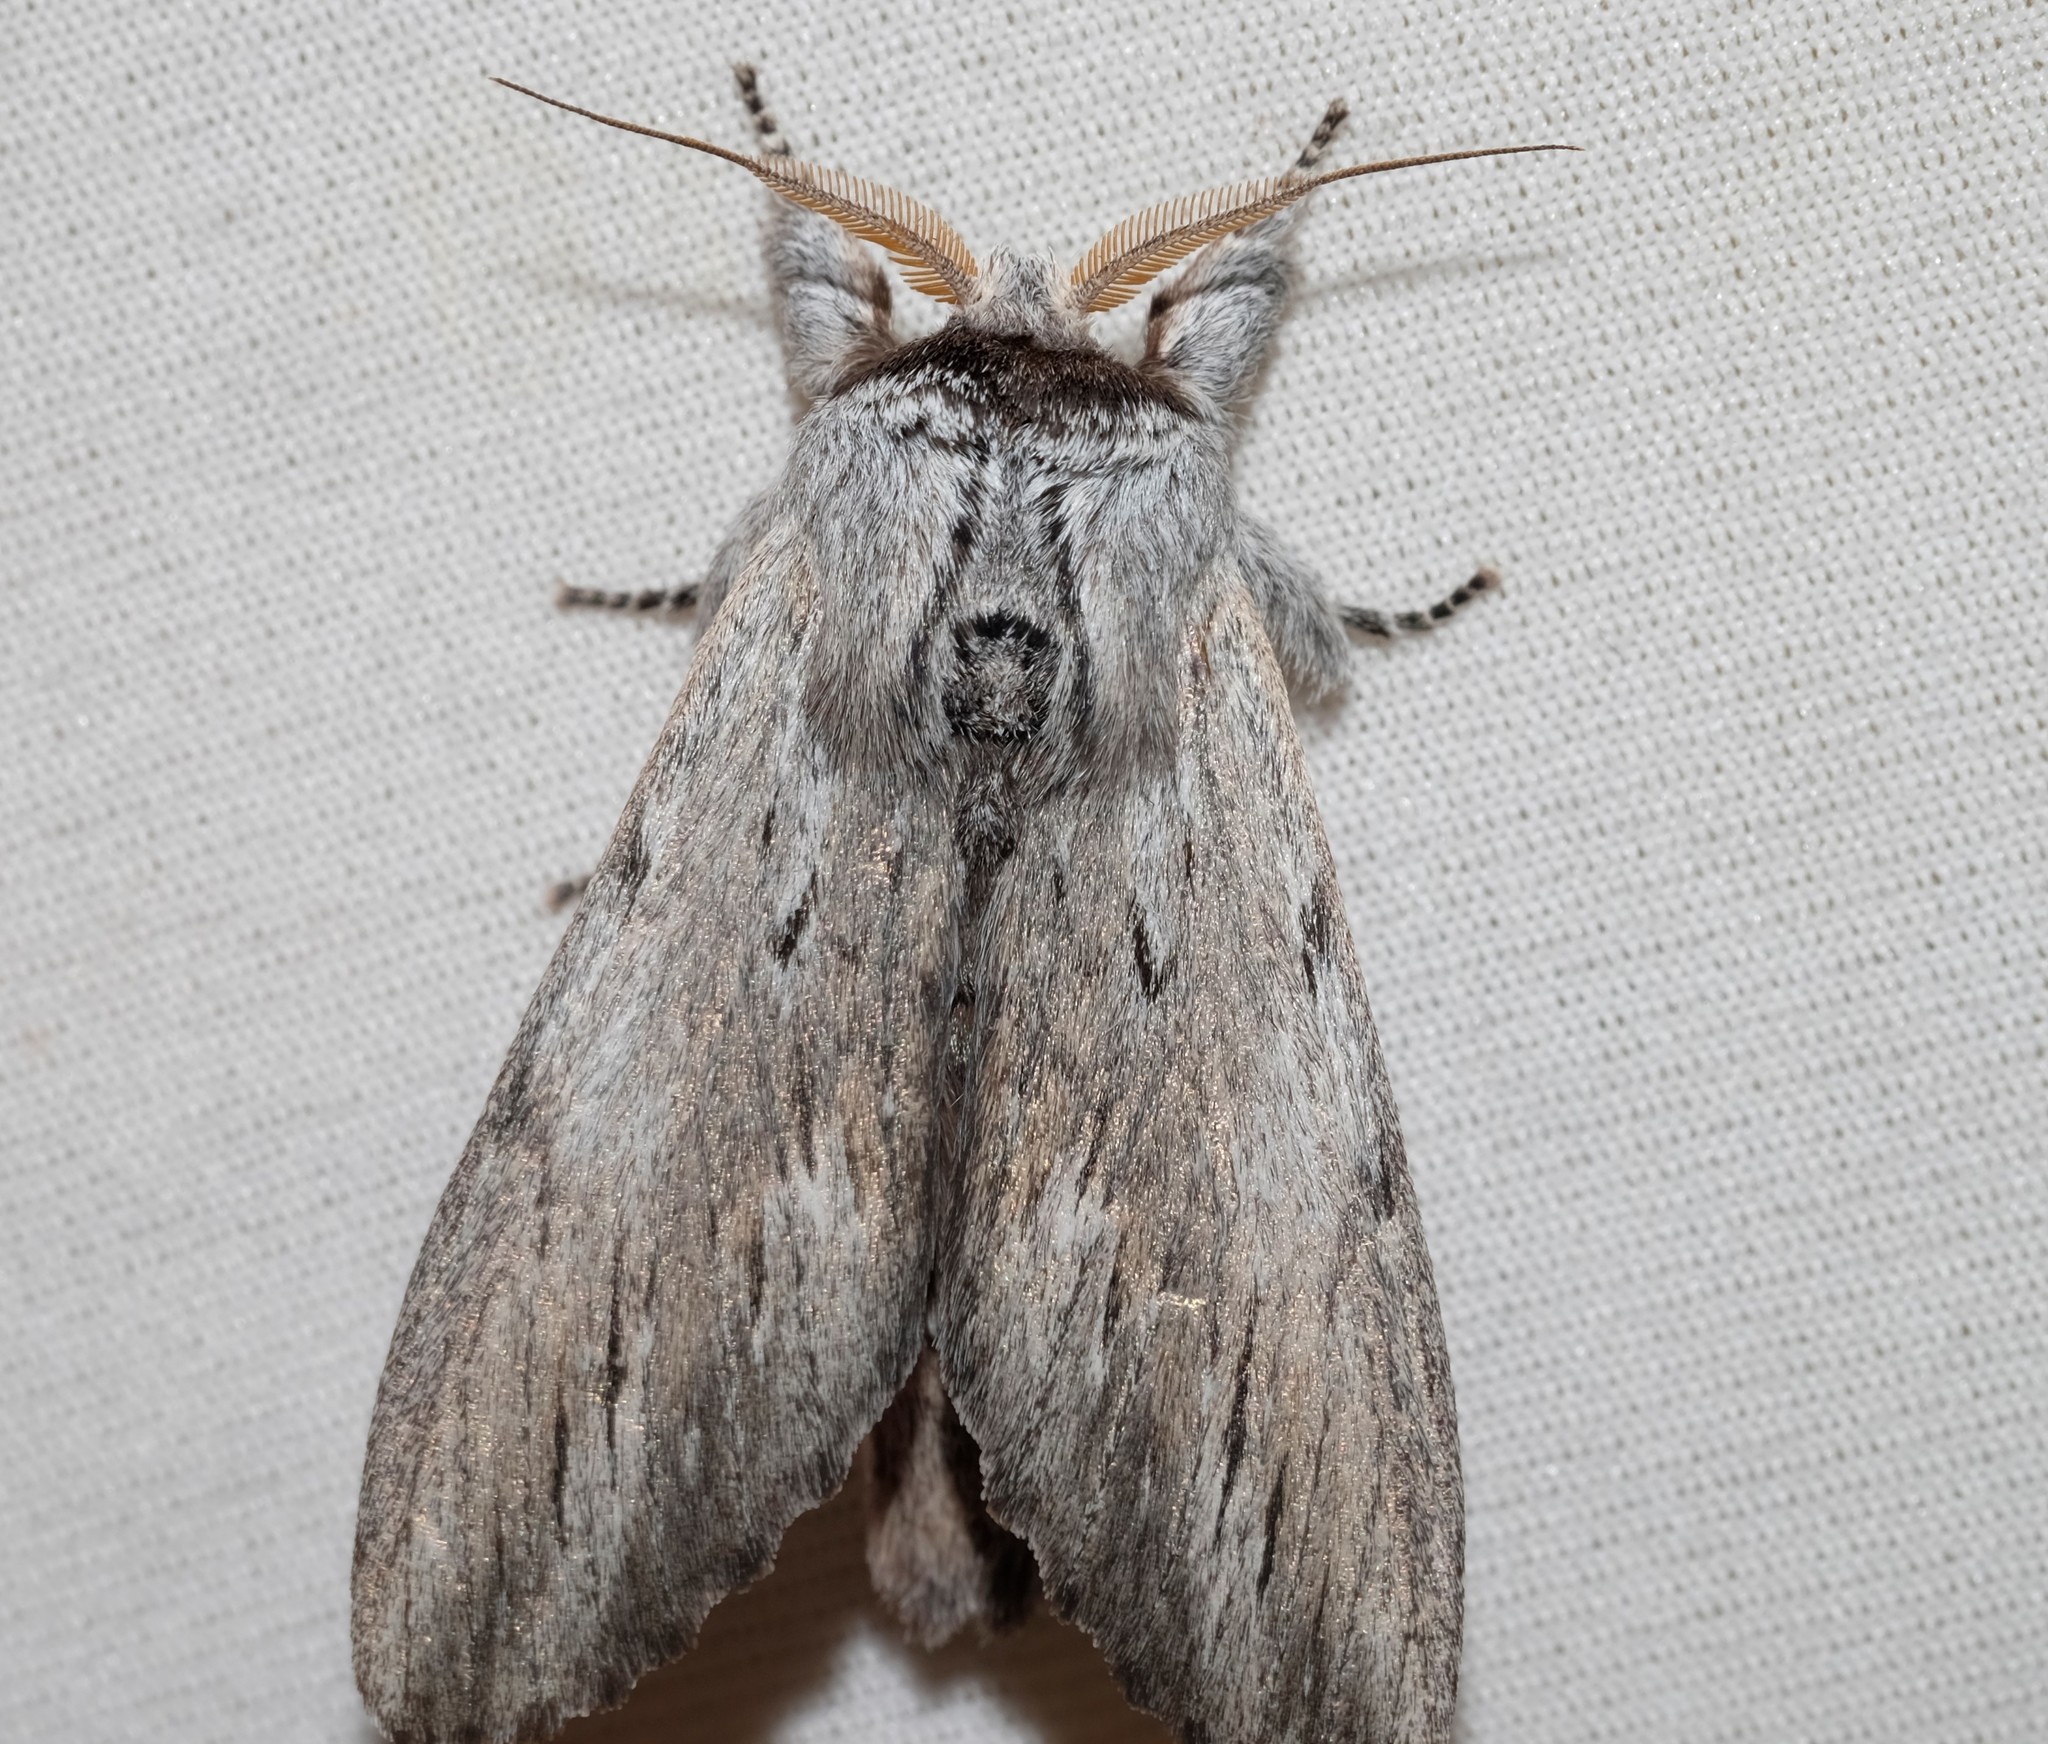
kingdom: Animalia
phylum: Arthropoda
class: Insecta
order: Lepidoptera
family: Notodontidae
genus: Destolmia
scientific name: Destolmia lineata
